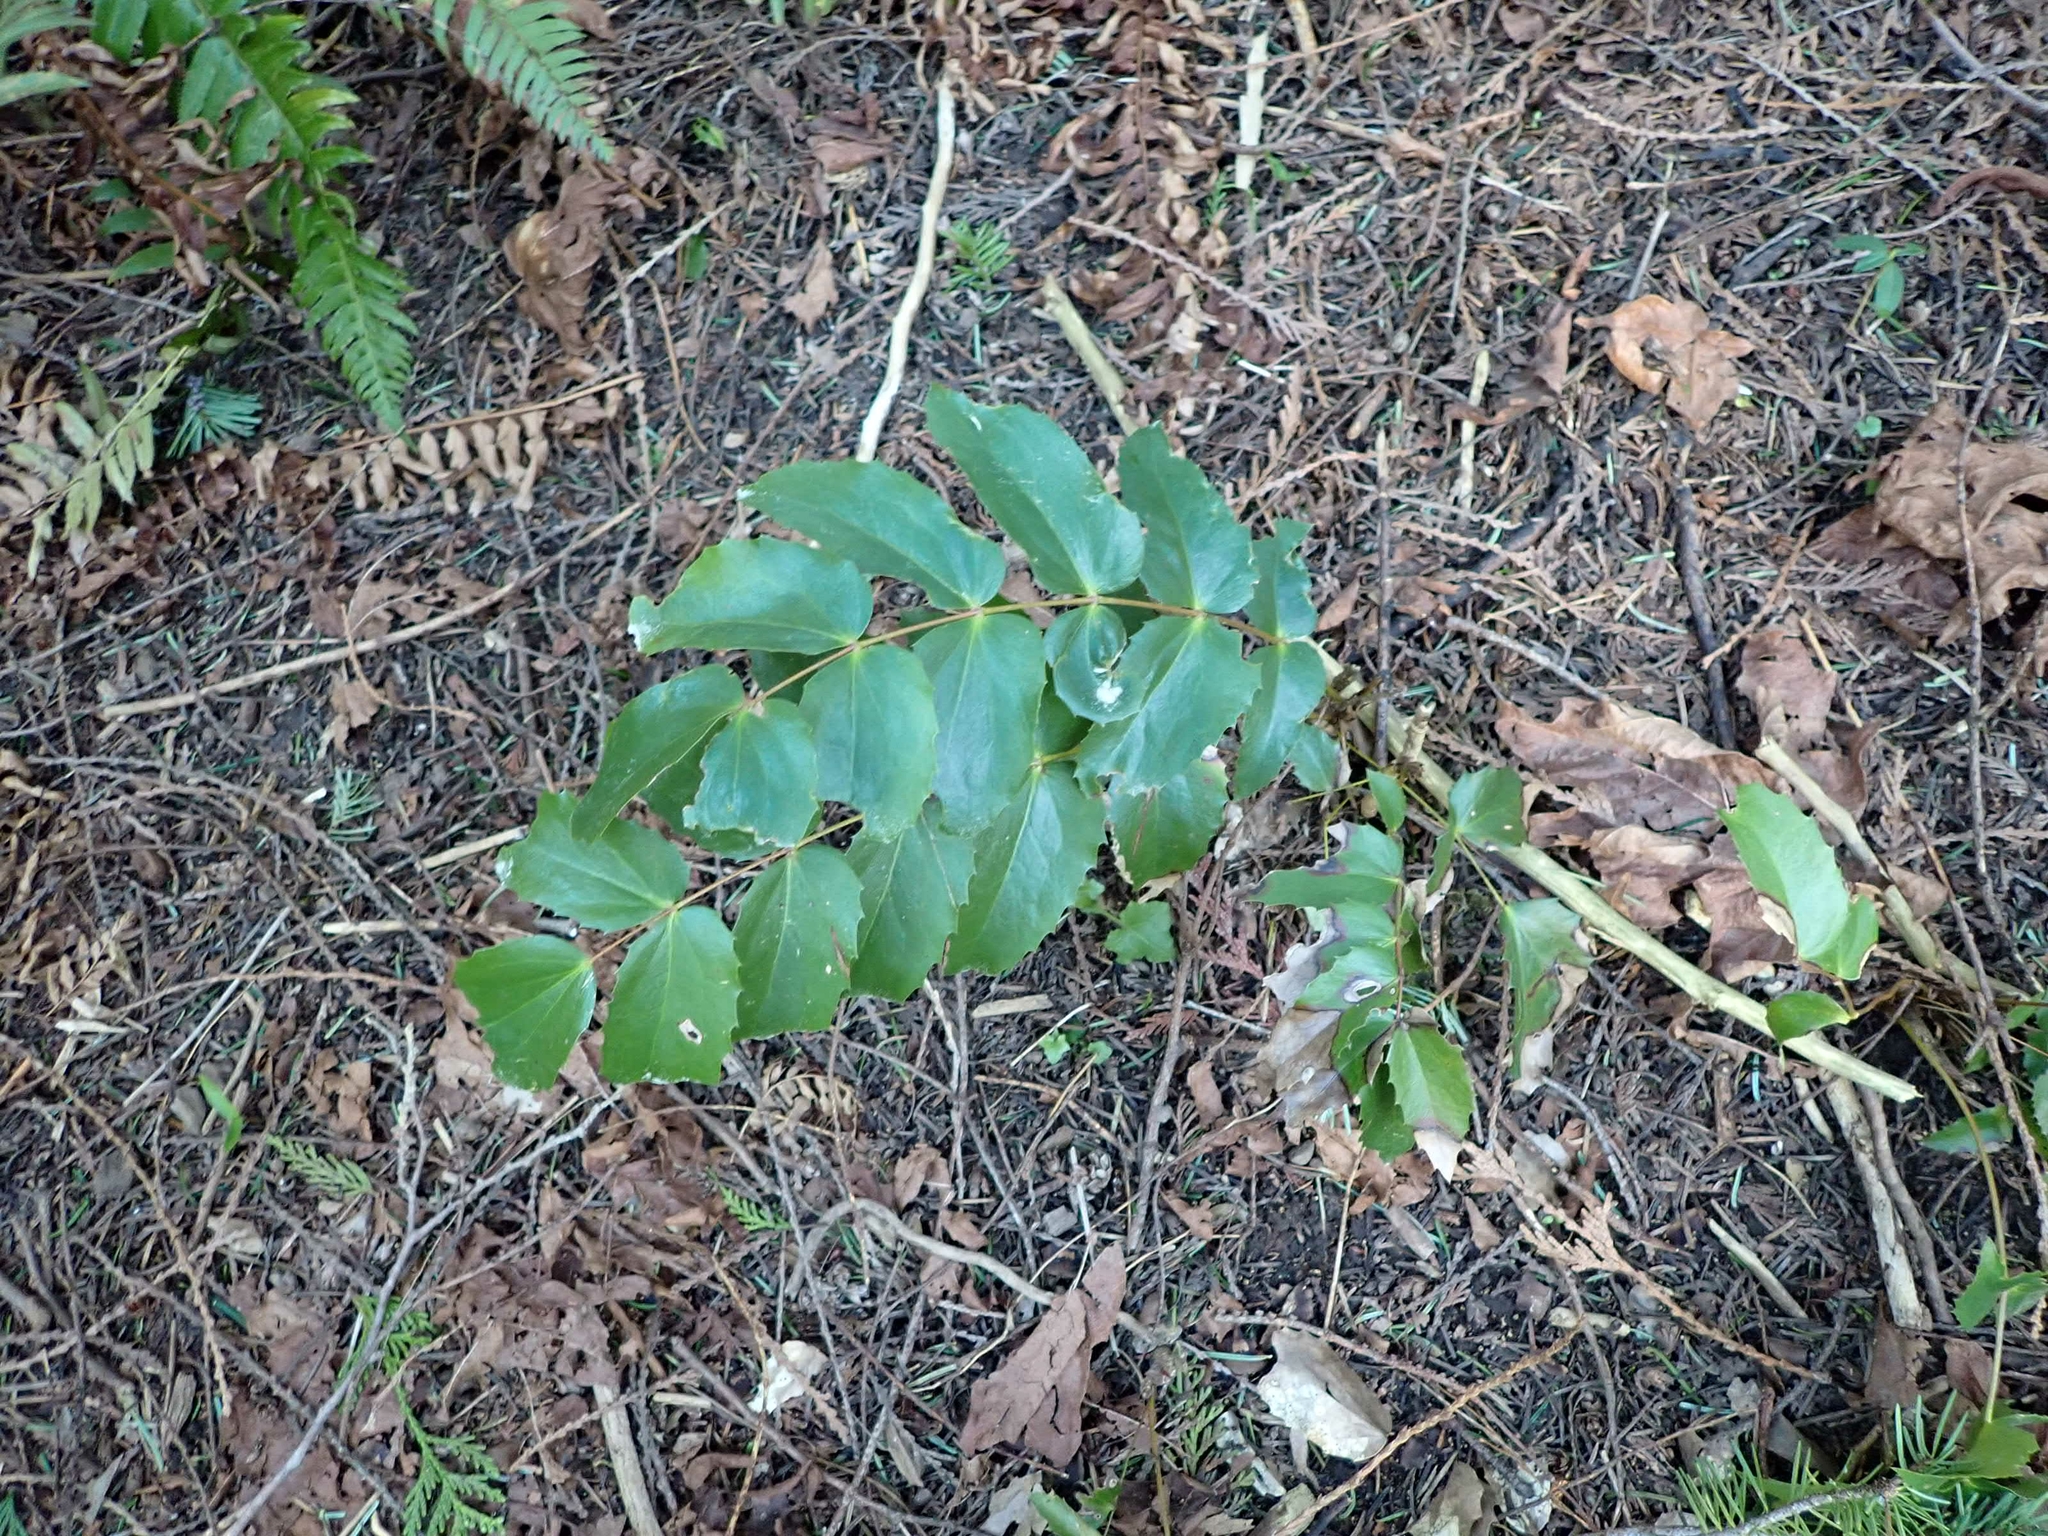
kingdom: Plantae
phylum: Tracheophyta
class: Magnoliopsida
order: Ranunculales
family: Berberidaceae
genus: Mahonia
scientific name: Mahonia nervosa
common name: Cascade oregon-grape
